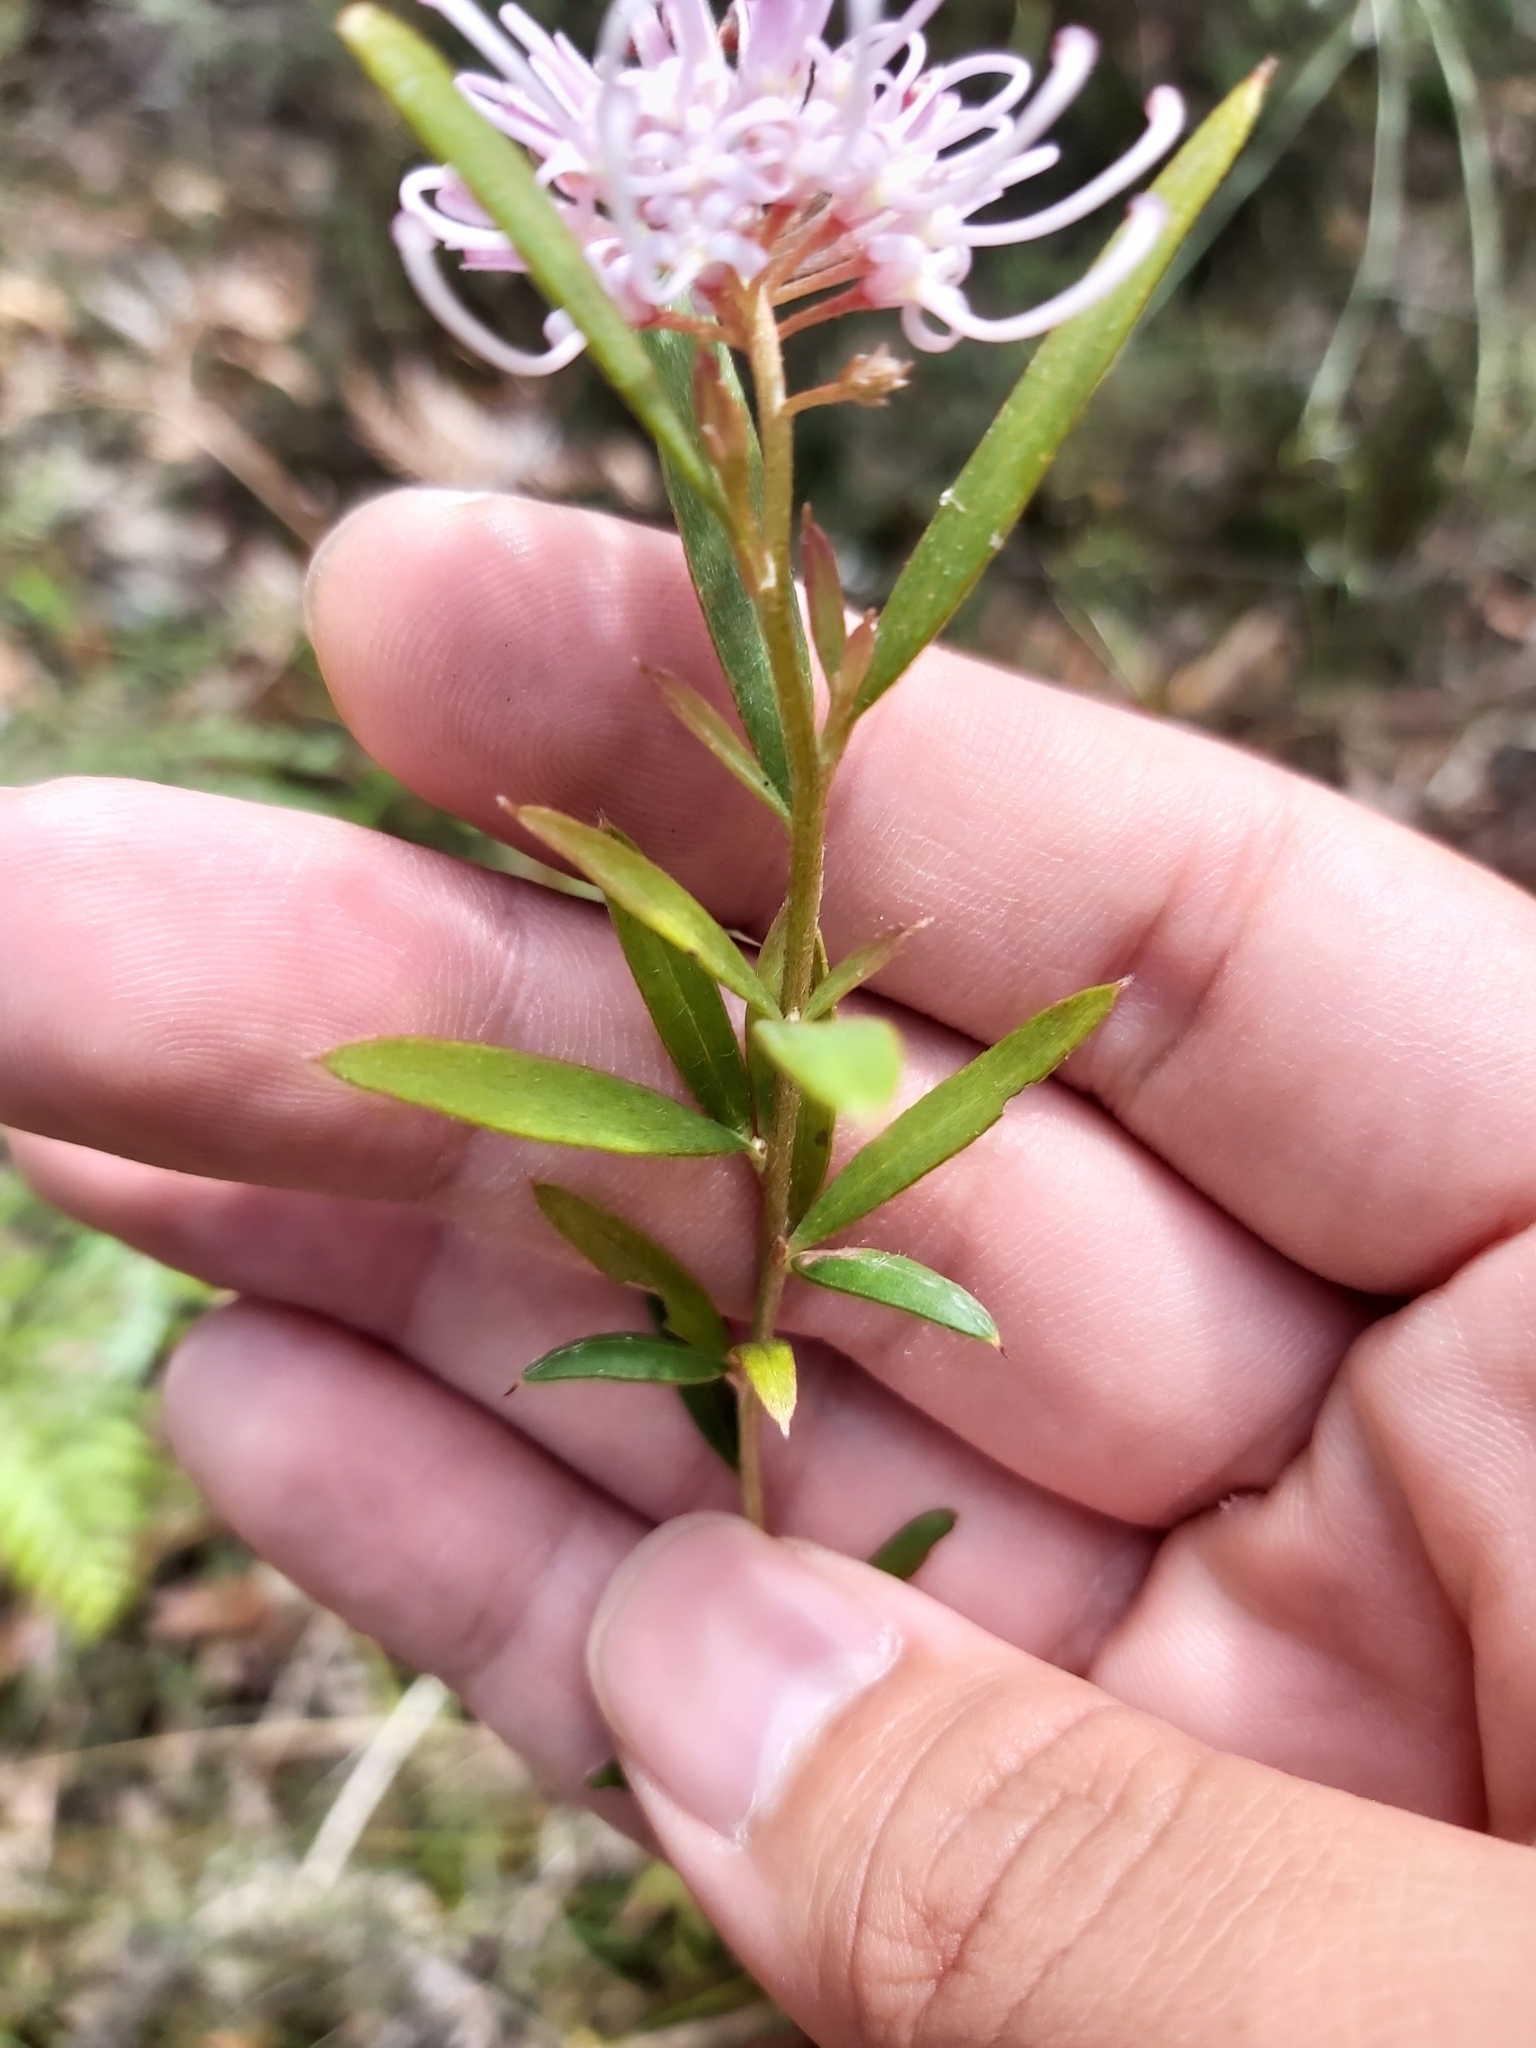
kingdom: Plantae
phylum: Tracheophyta
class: Magnoliopsida
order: Proteales
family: Proteaceae
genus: Grevillea
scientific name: Grevillea sericea
